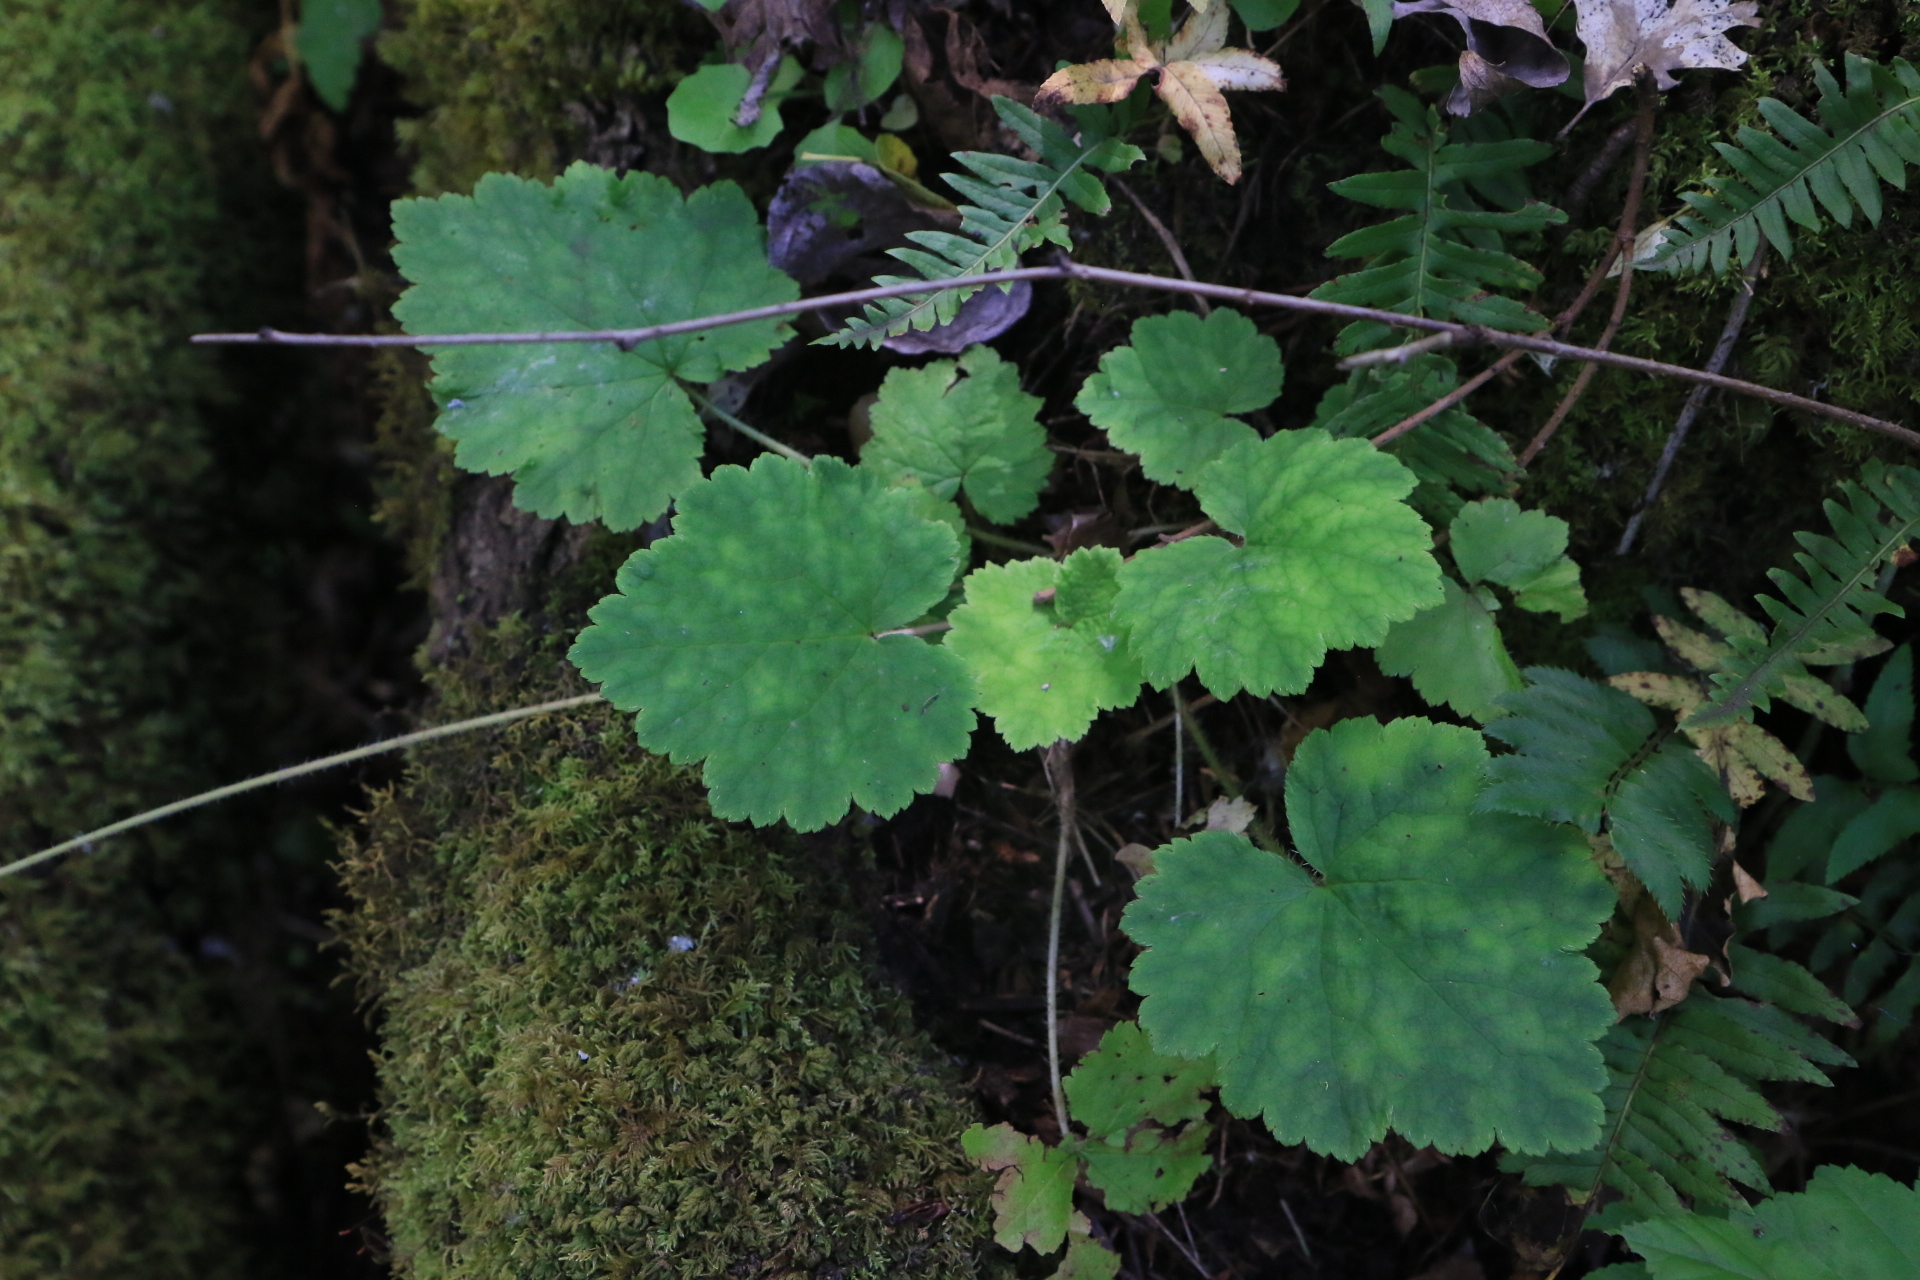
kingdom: Plantae
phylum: Tracheophyta
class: Magnoliopsida
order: Saxifragales
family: Saxifragaceae
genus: Tellima
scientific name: Tellima grandiflora
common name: Fringecups
